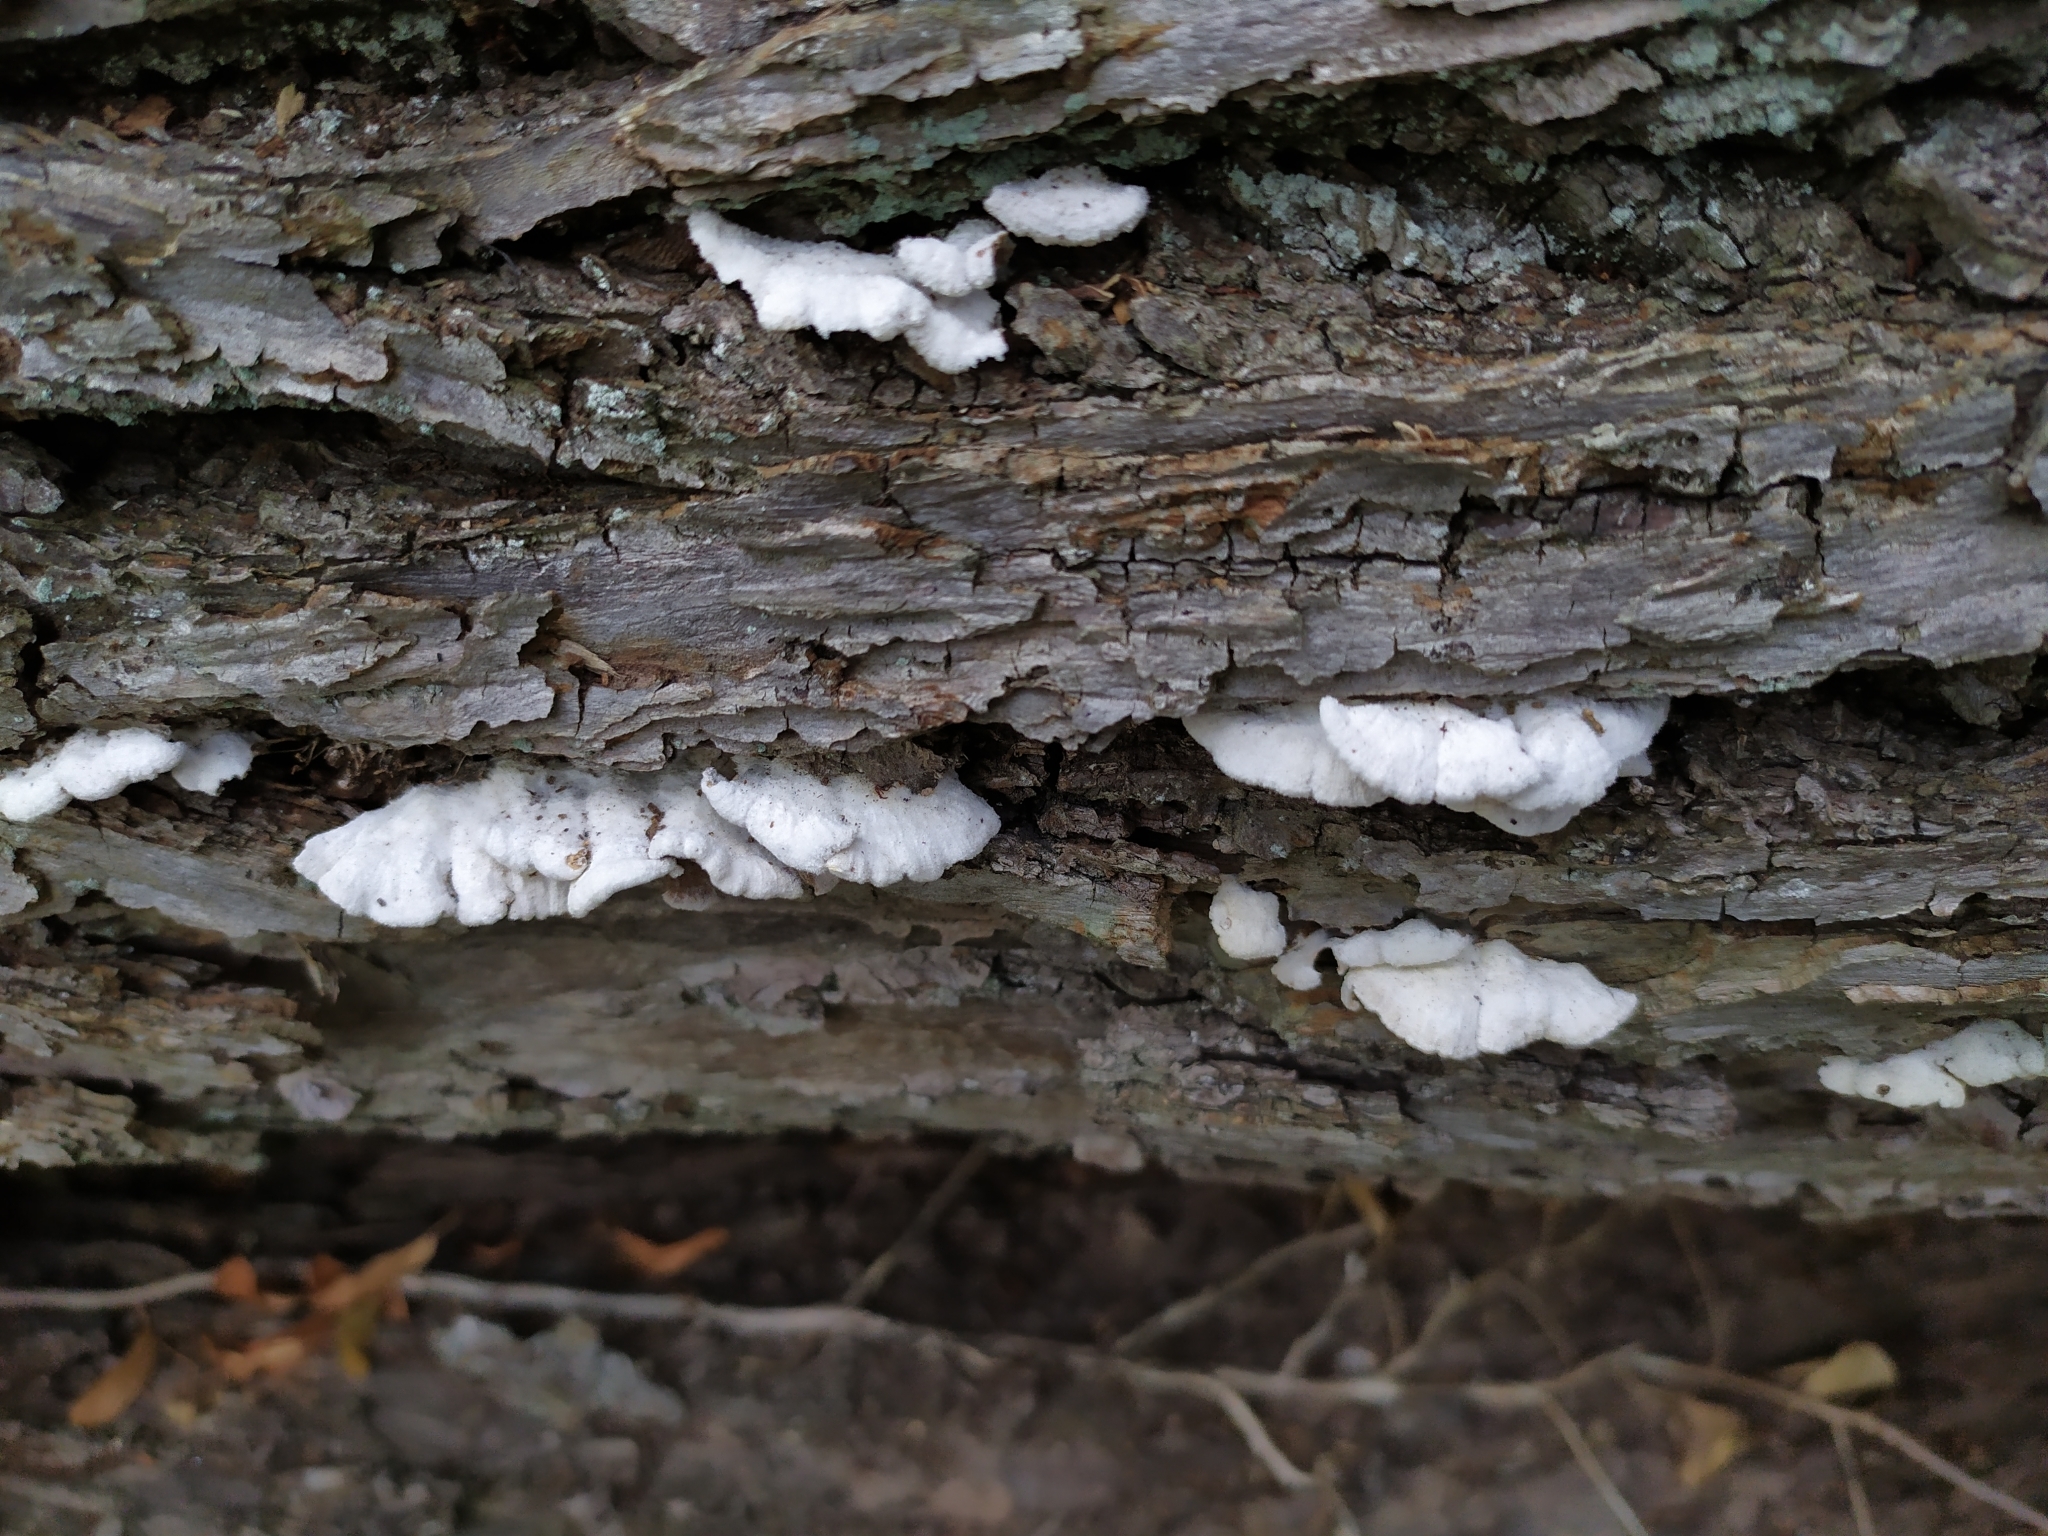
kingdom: Fungi
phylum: Basidiomycota
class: Agaricomycetes
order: Agaricales
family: Schizophyllaceae
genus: Schizophyllum
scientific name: Schizophyllum commune
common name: Common porecrust
